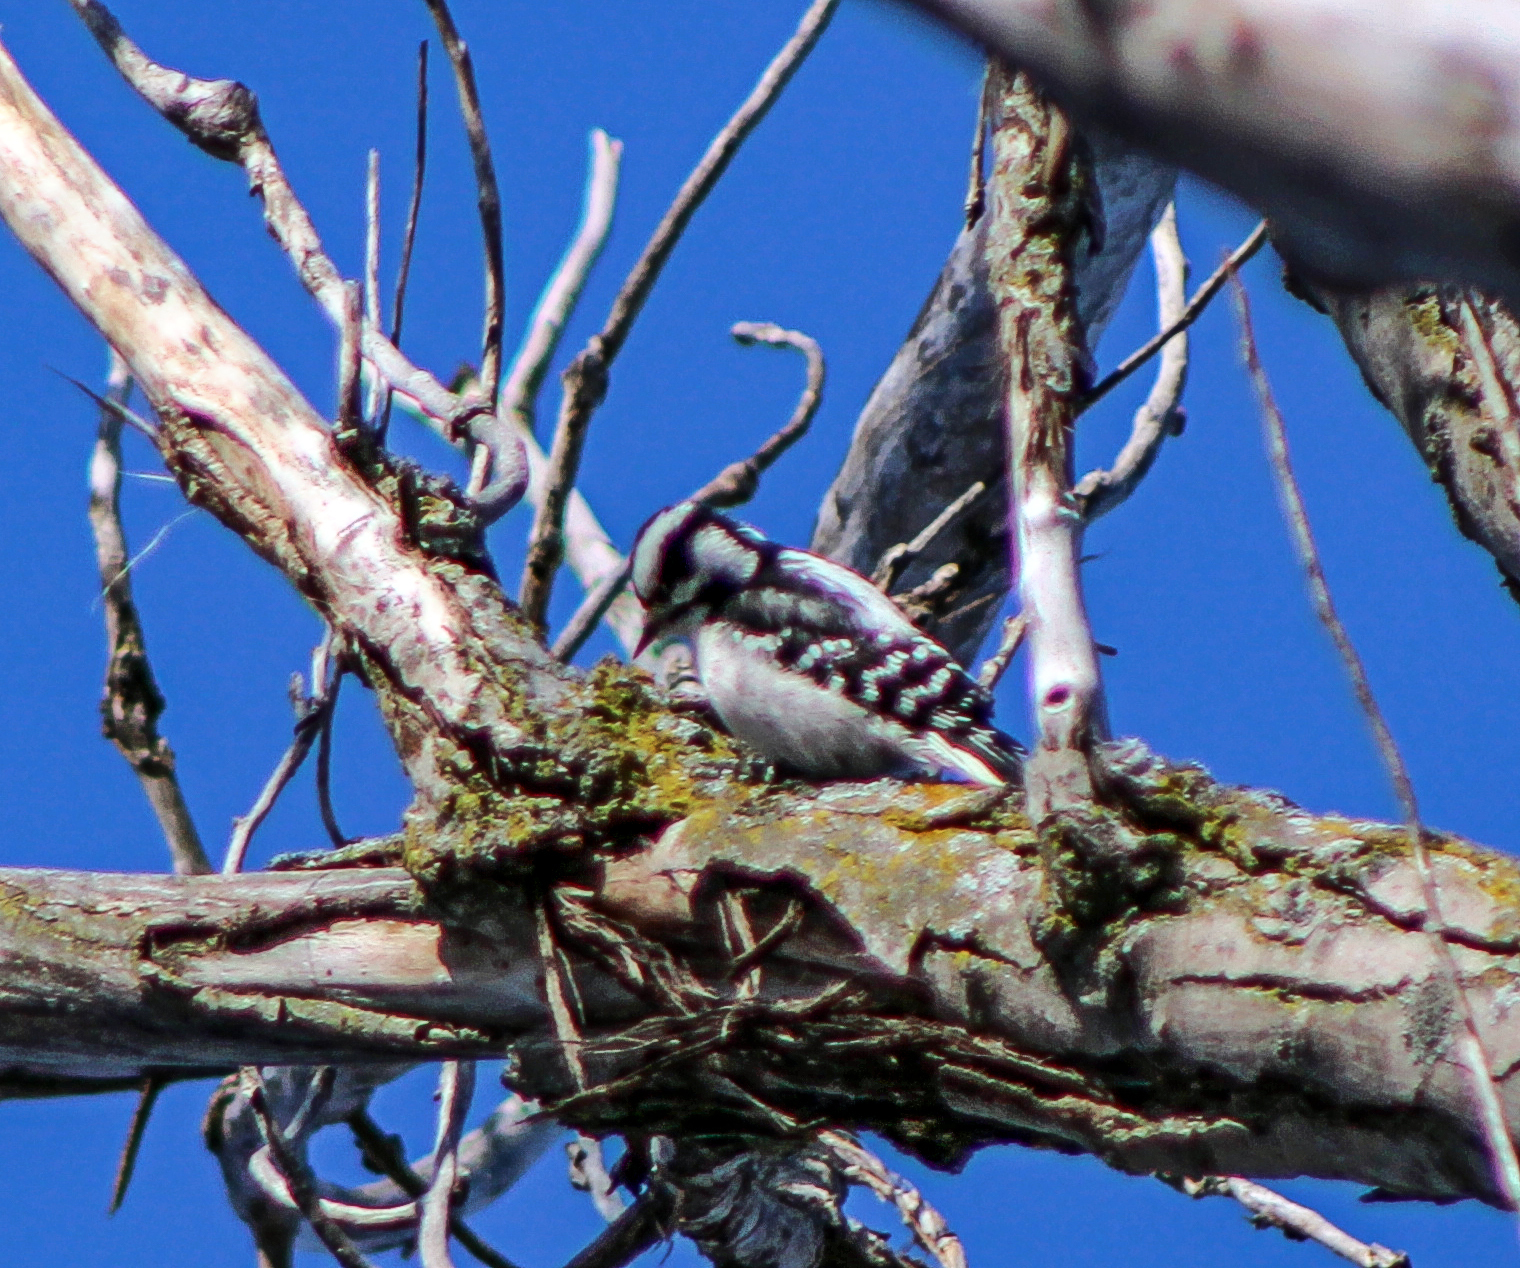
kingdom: Animalia
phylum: Chordata
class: Aves
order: Piciformes
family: Picidae
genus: Dryobates
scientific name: Dryobates pubescens
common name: Downy woodpecker
